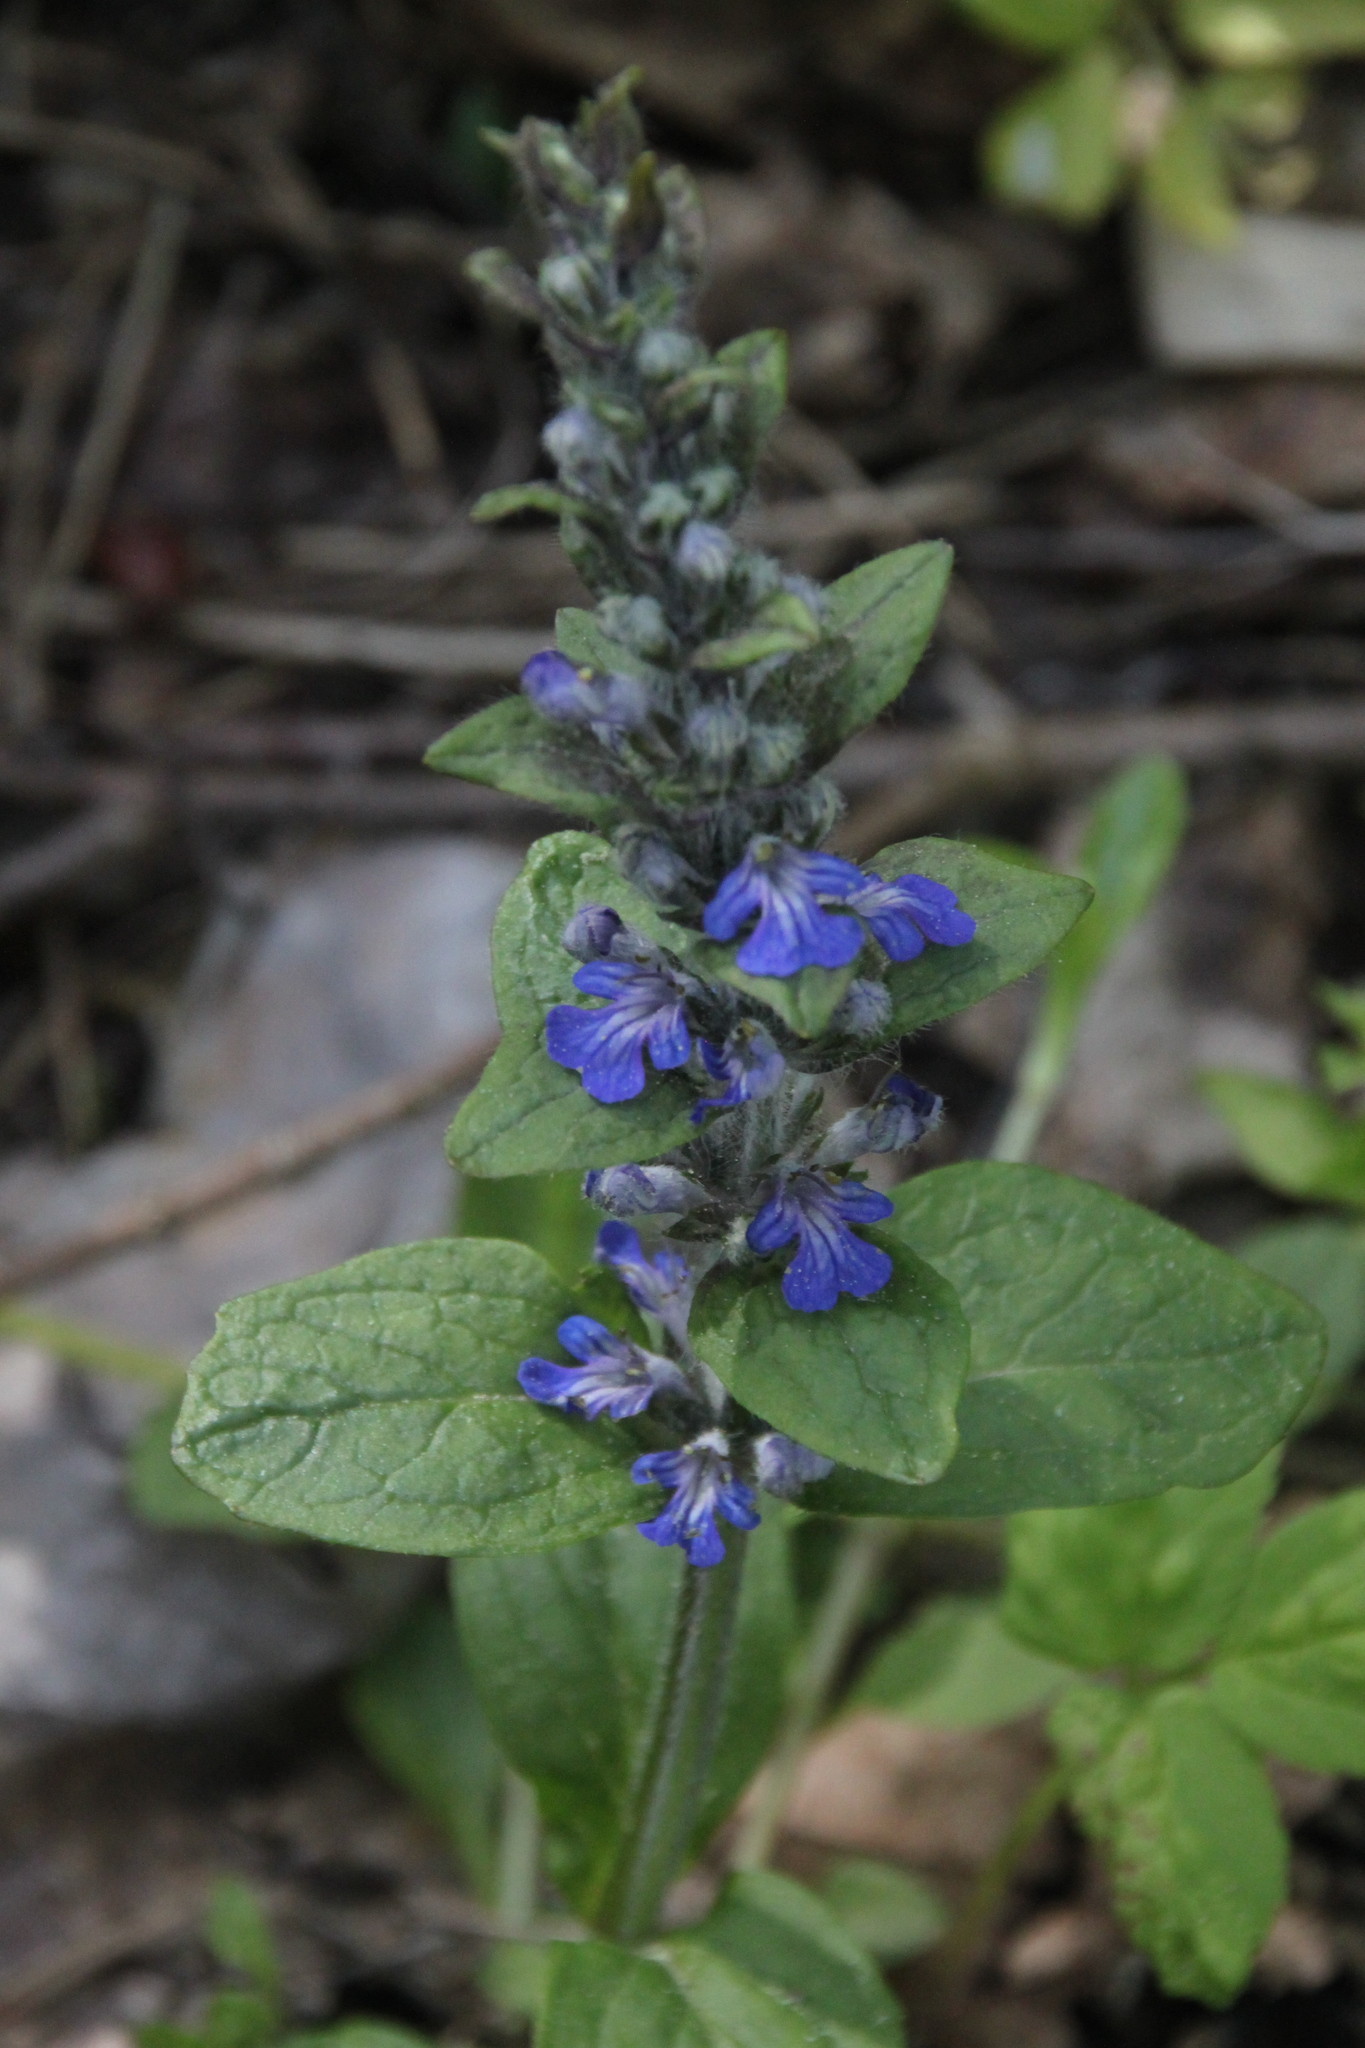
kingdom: Plantae
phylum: Tracheophyta
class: Magnoliopsida
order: Lamiales
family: Lamiaceae
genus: Ajuga
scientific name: Ajuga reptans
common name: Bugle
